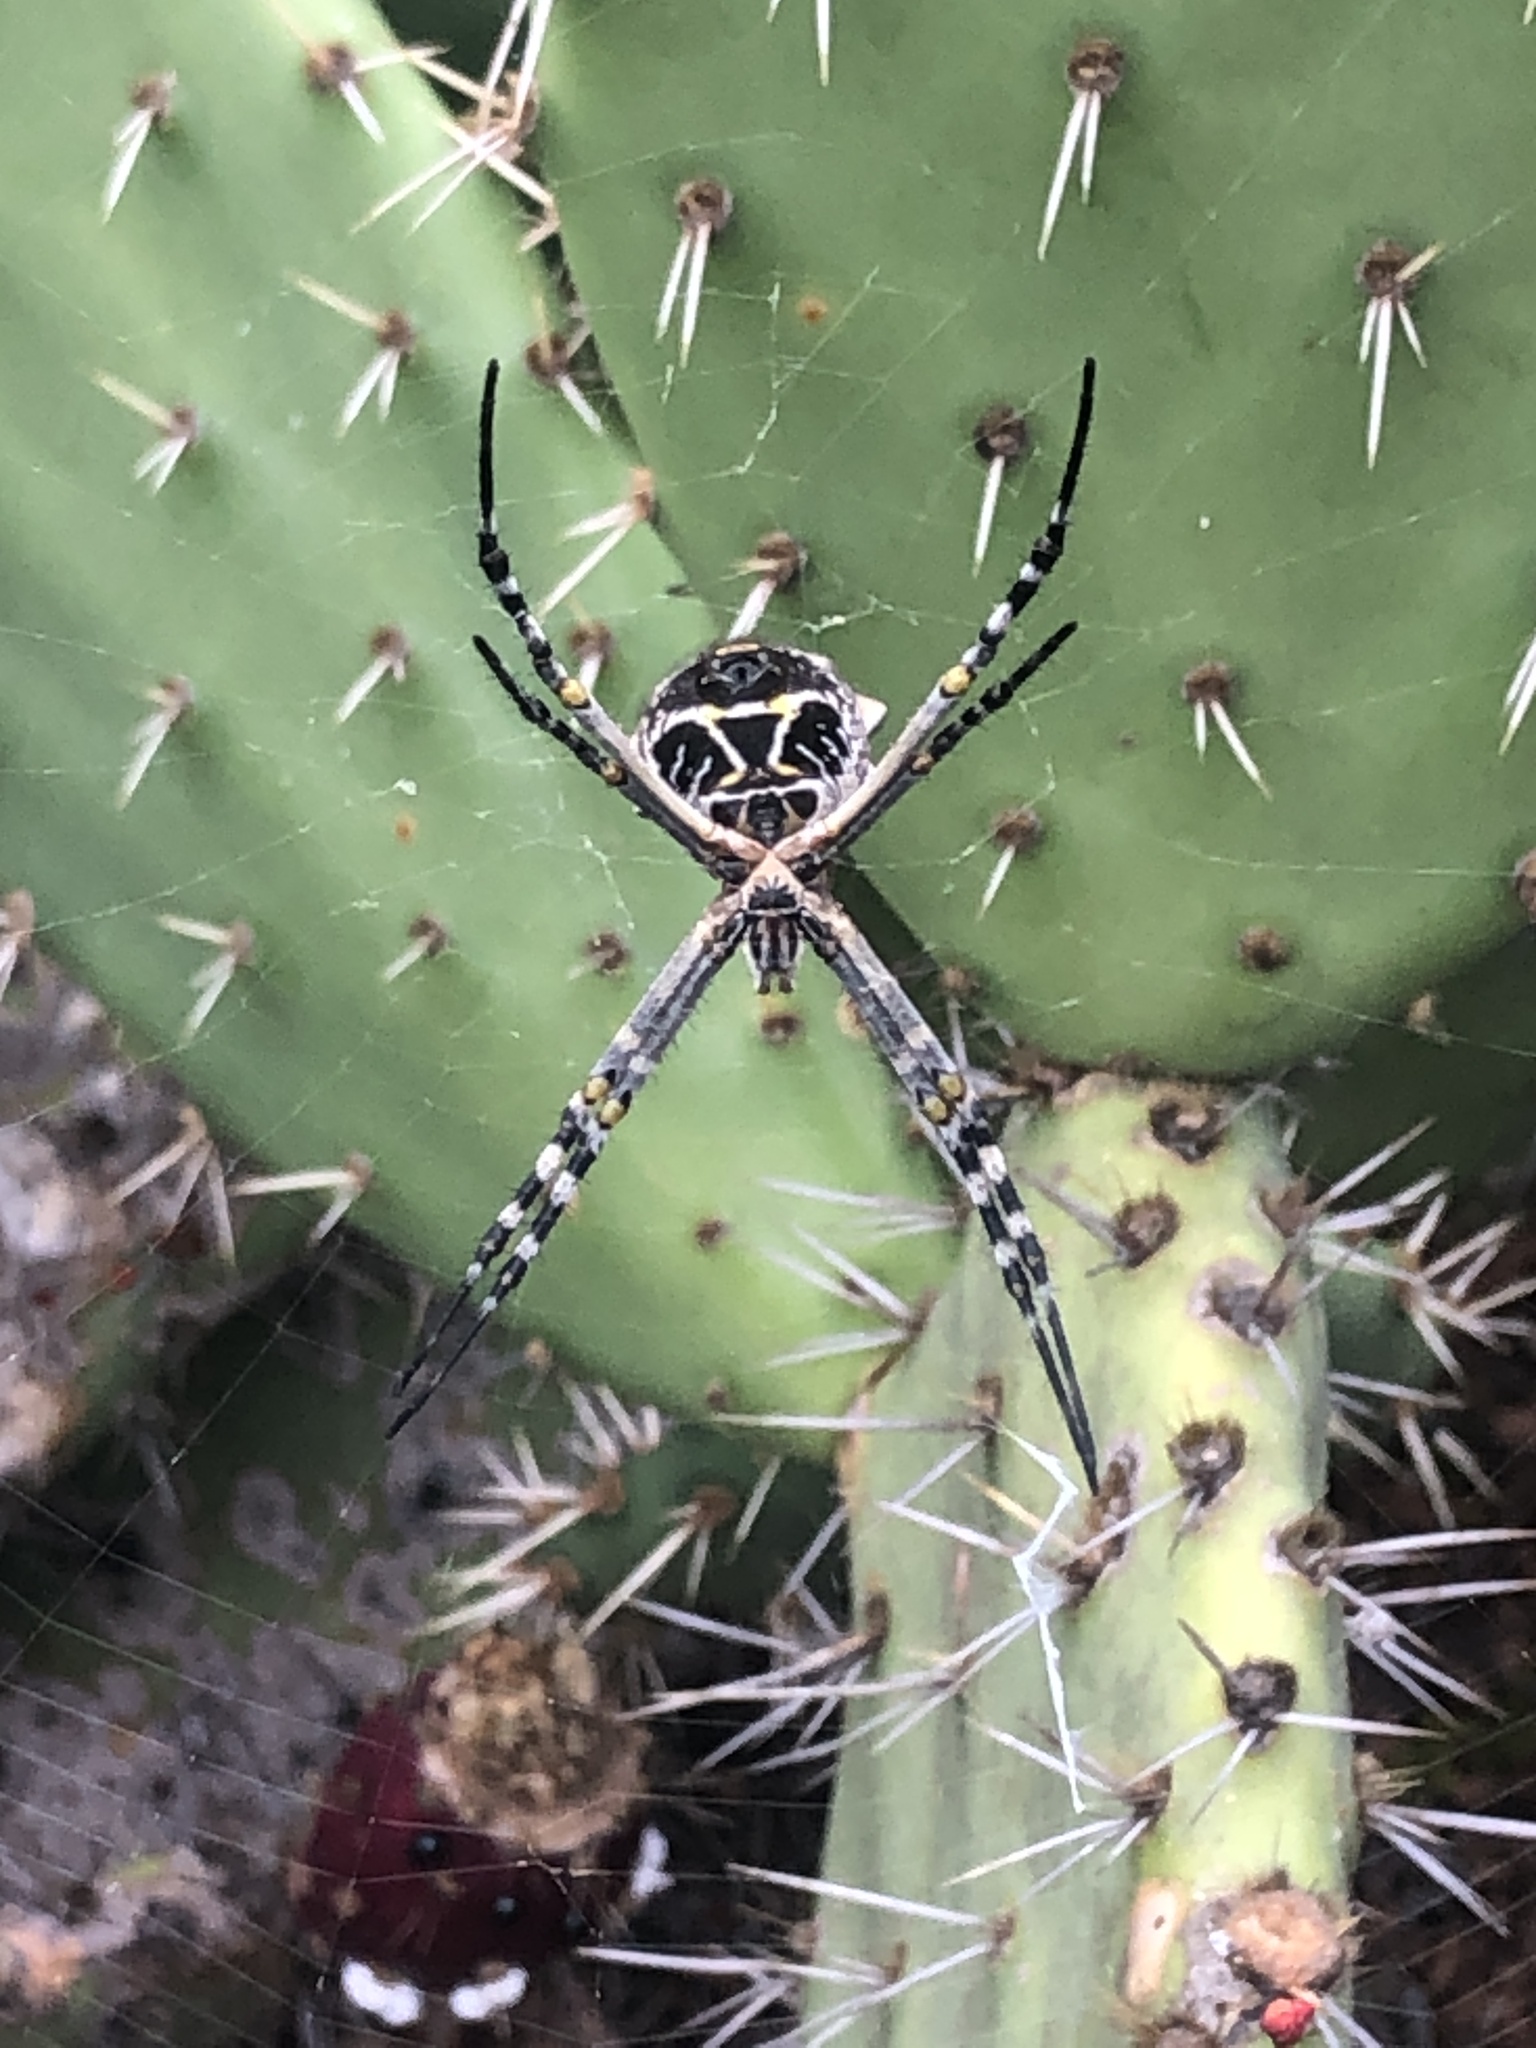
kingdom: Animalia
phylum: Arthropoda
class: Arachnida
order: Araneae
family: Araneidae
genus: Argiope
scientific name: Argiope argentata
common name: Orb weavers
